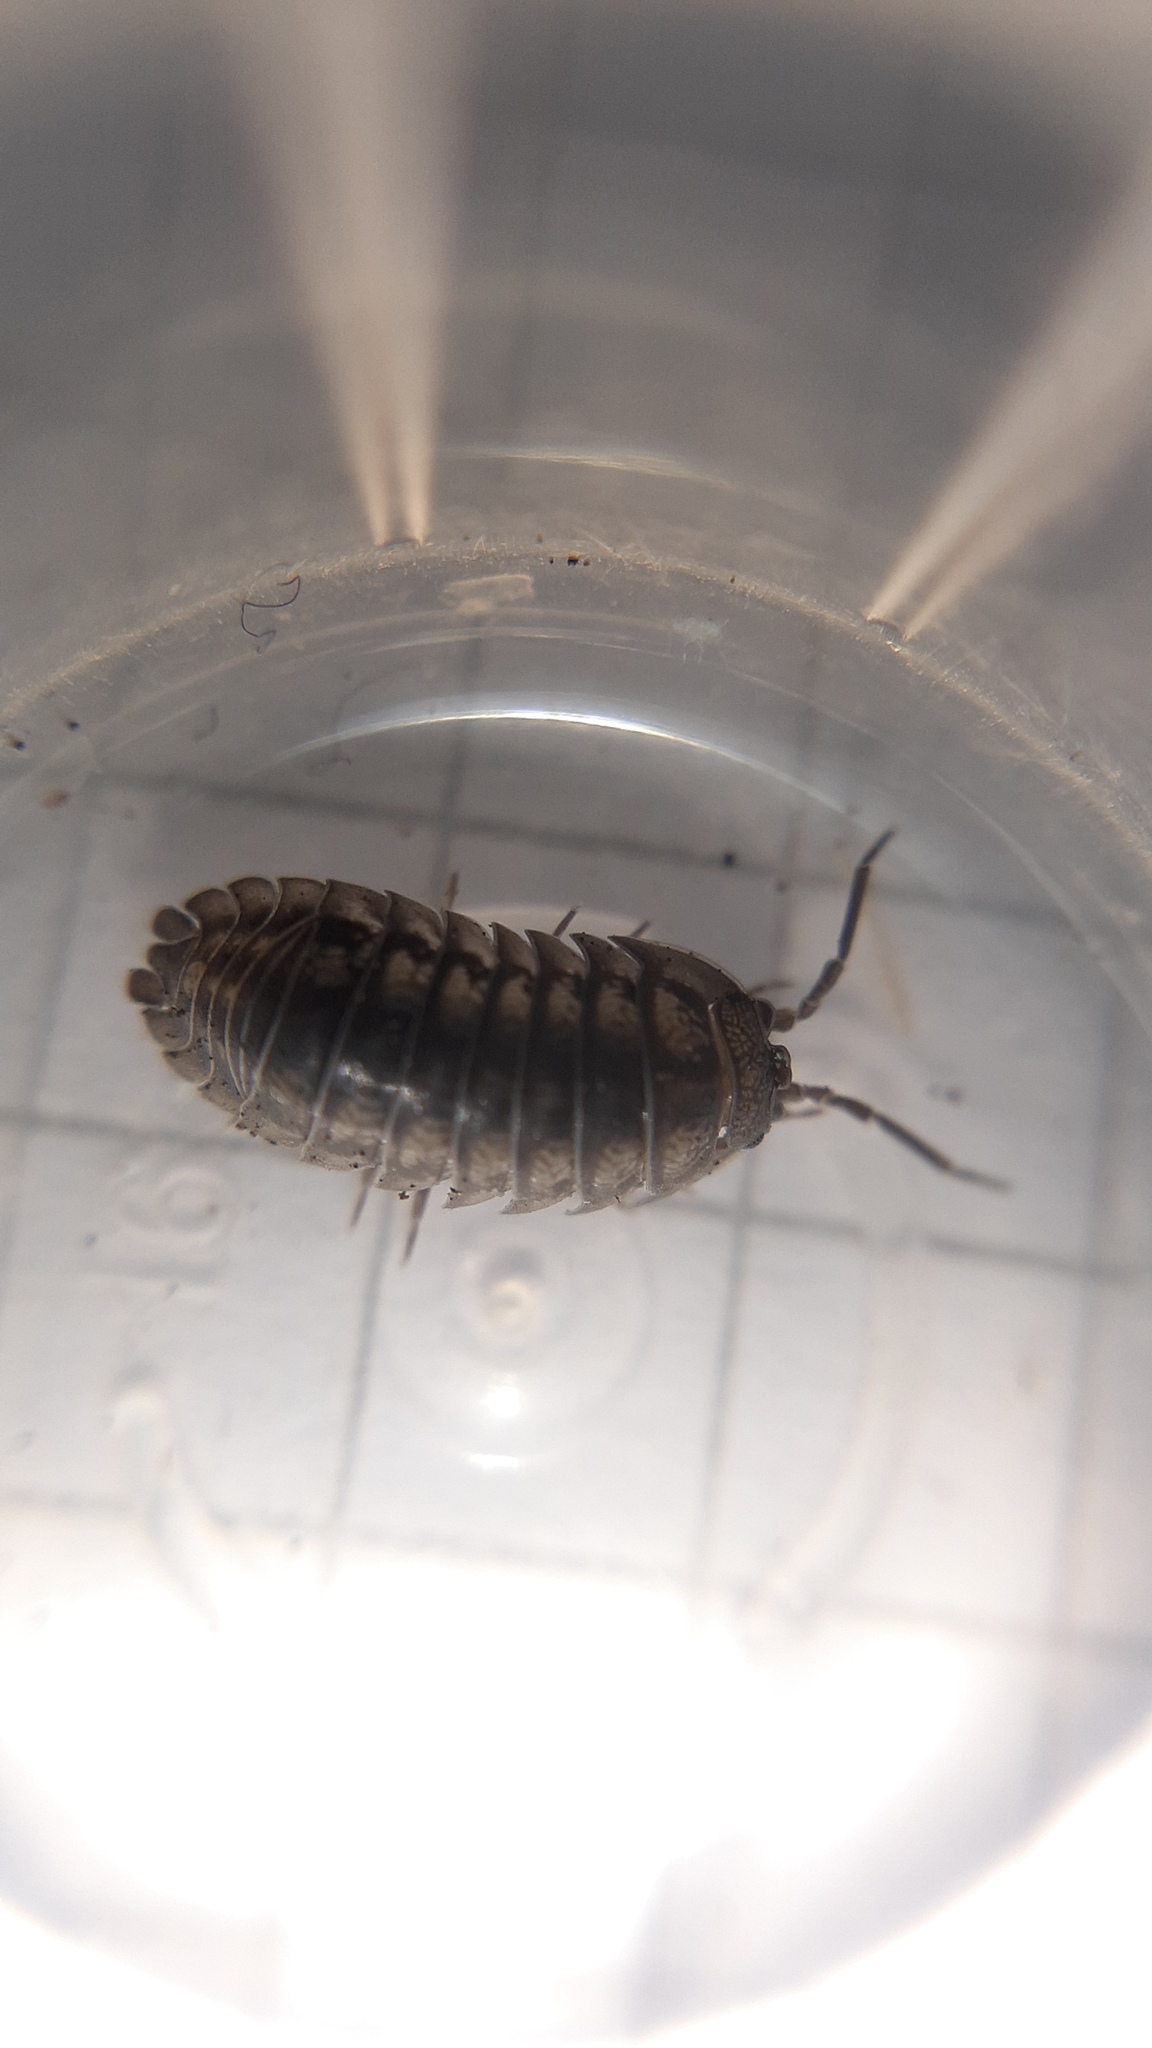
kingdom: Animalia
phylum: Arthropoda
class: Malacostraca
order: Isopoda
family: Armadillidiidae
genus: Armadillidium
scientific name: Armadillidium nasatum
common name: Isopod
